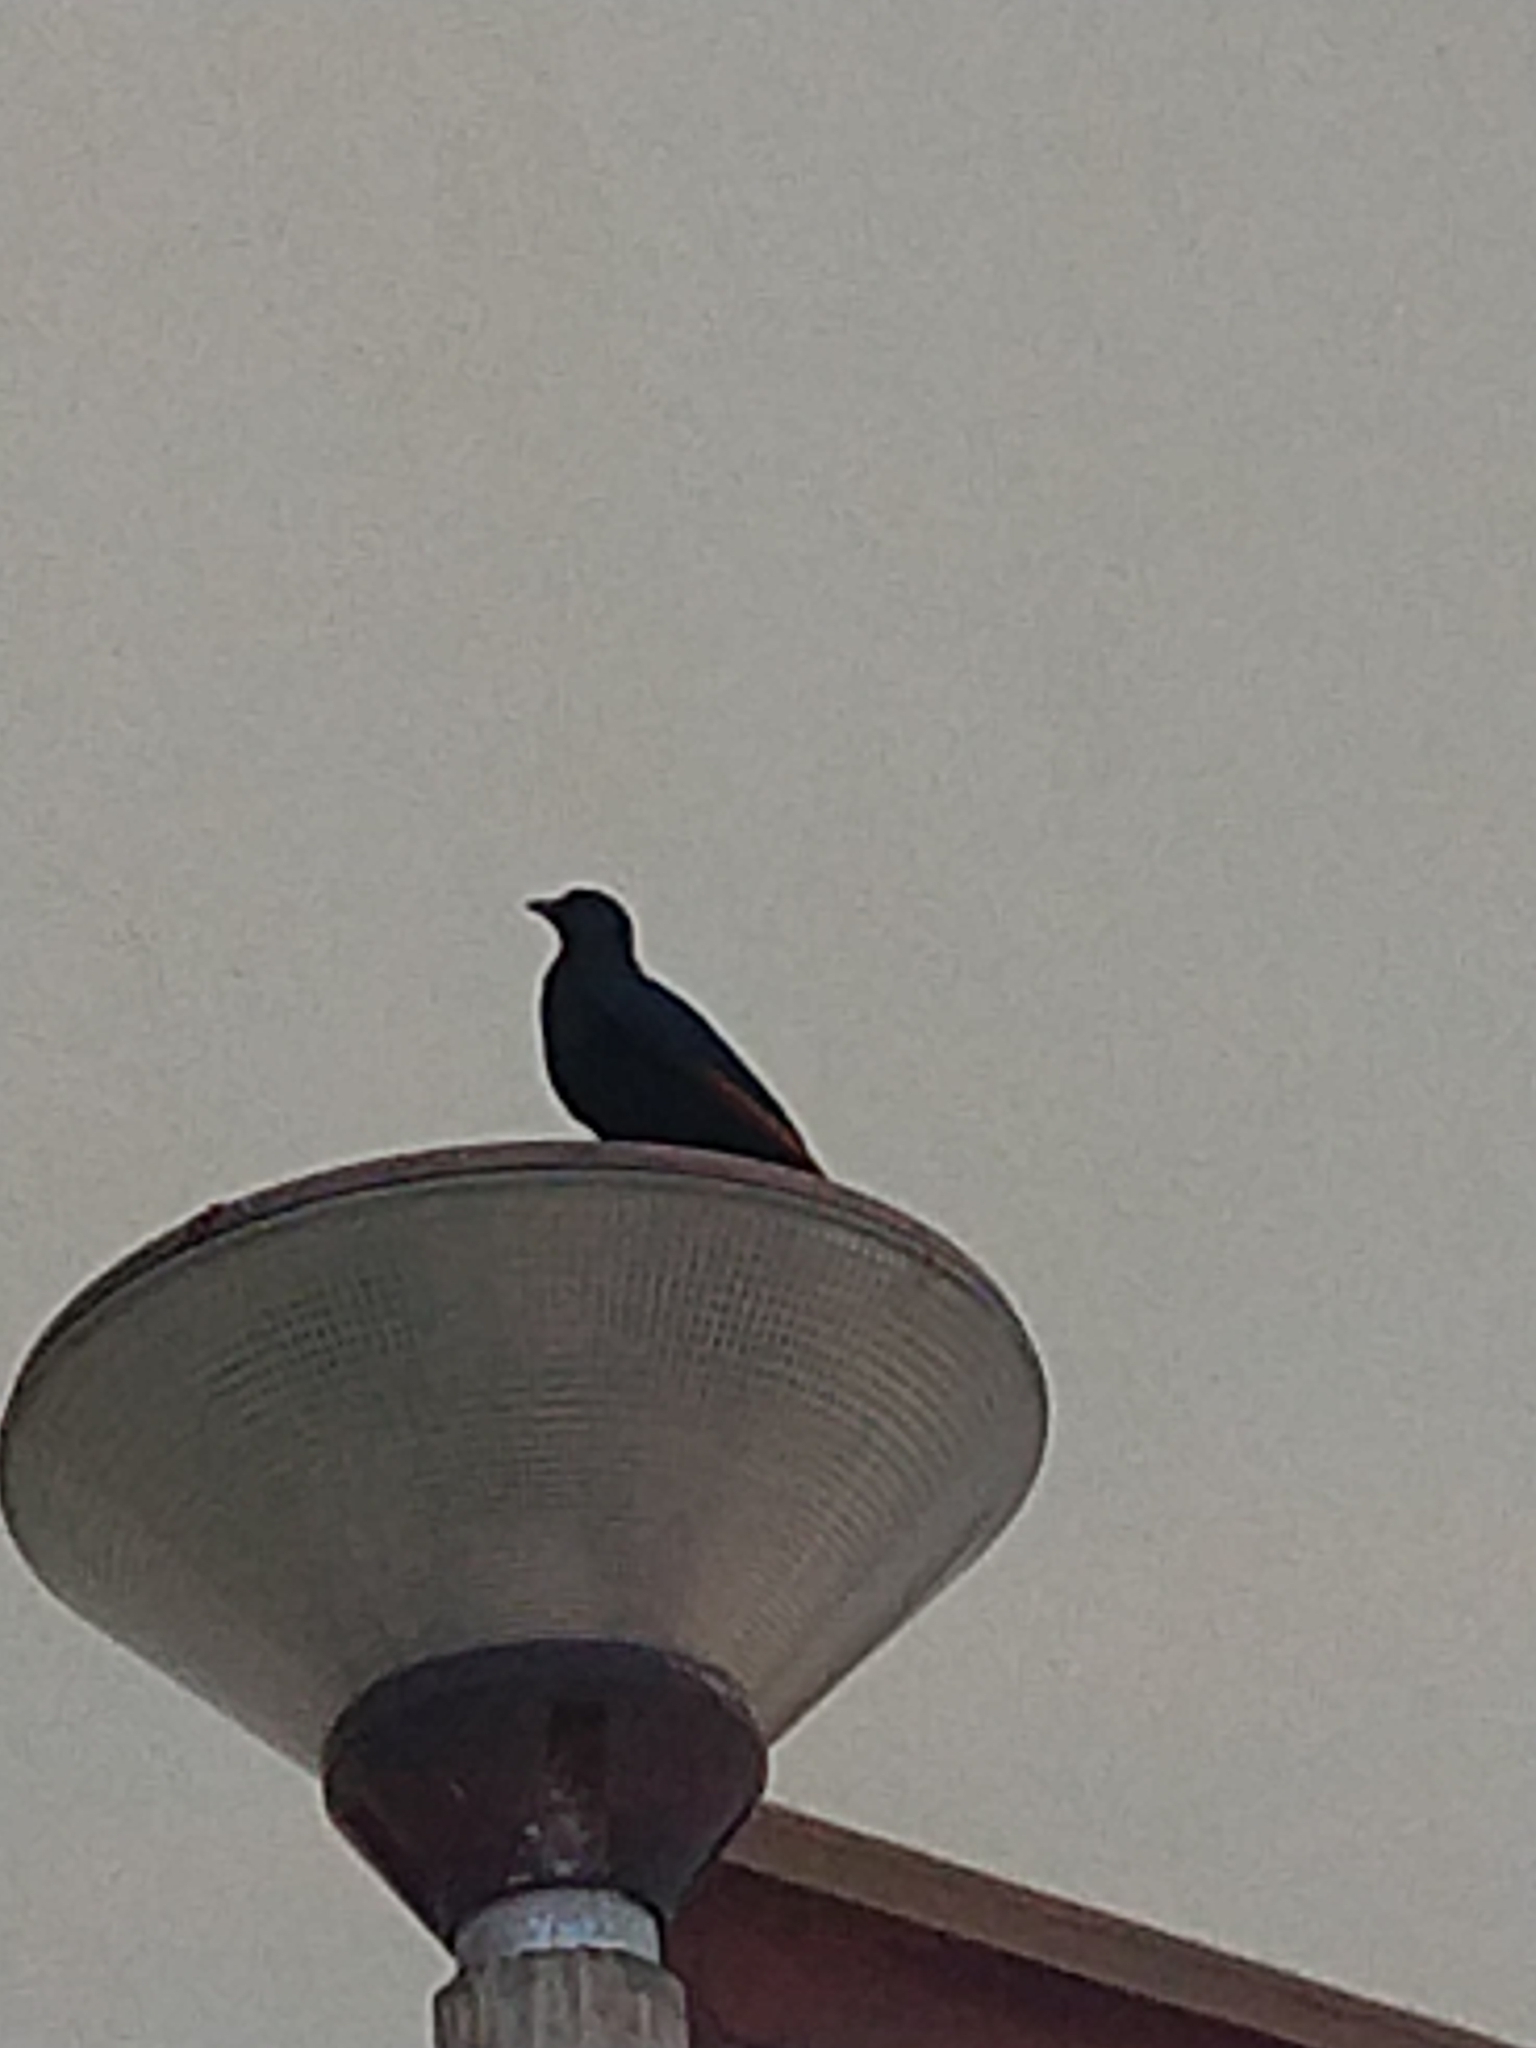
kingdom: Animalia
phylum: Chordata
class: Aves
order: Passeriformes
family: Sturnidae
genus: Onychognathus
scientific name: Onychognathus morio
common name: Red-winged starling
